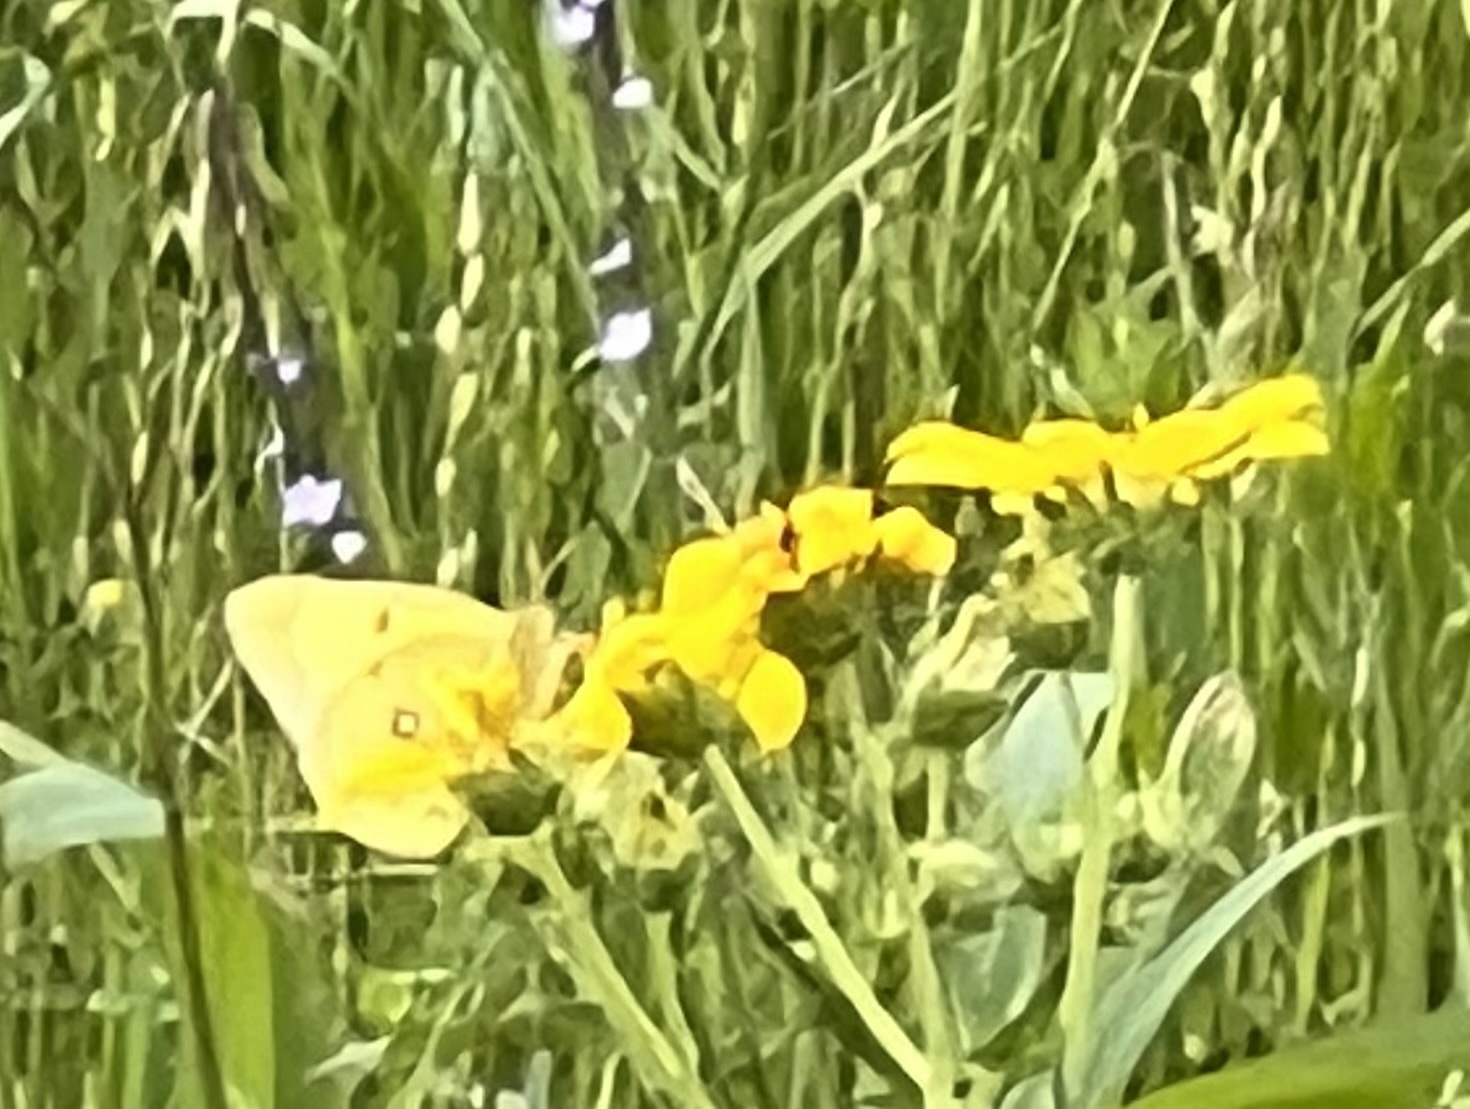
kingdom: Animalia
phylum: Arthropoda
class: Insecta
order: Lepidoptera
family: Pieridae
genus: Colias
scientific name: Colias eurytheme
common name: Alfalfa butterfly
